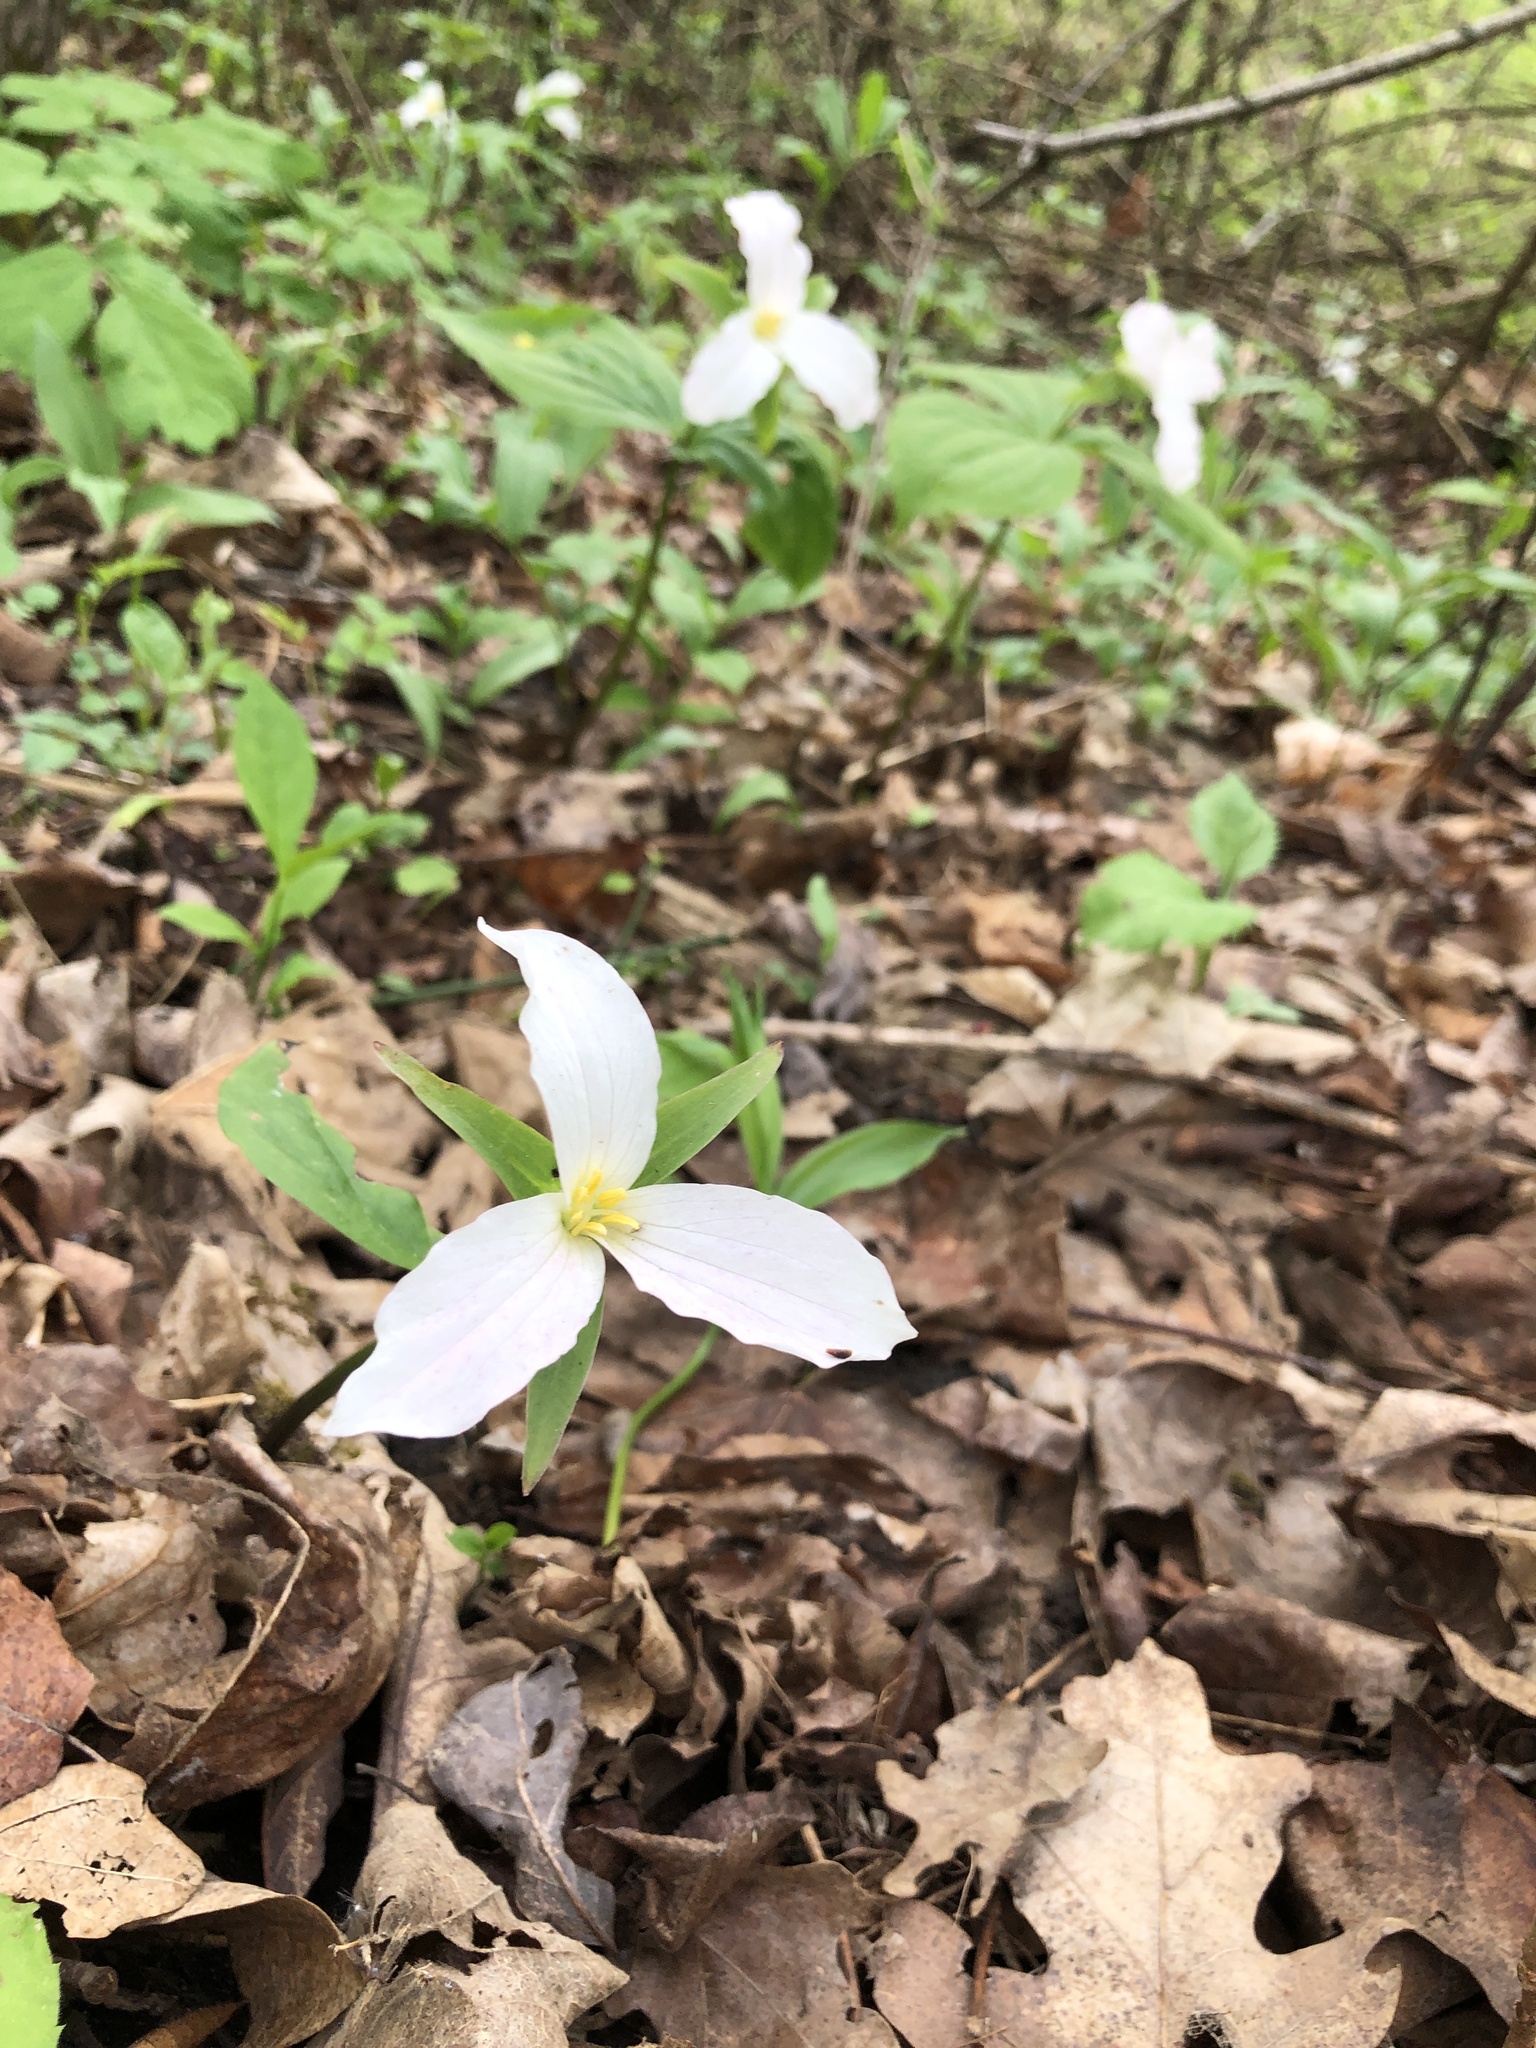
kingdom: Plantae
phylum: Tracheophyta
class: Liliopsida
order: Liliales
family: Melanthiaceae
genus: Trillium
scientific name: Trillium grandiflorum
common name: Great white trillium
